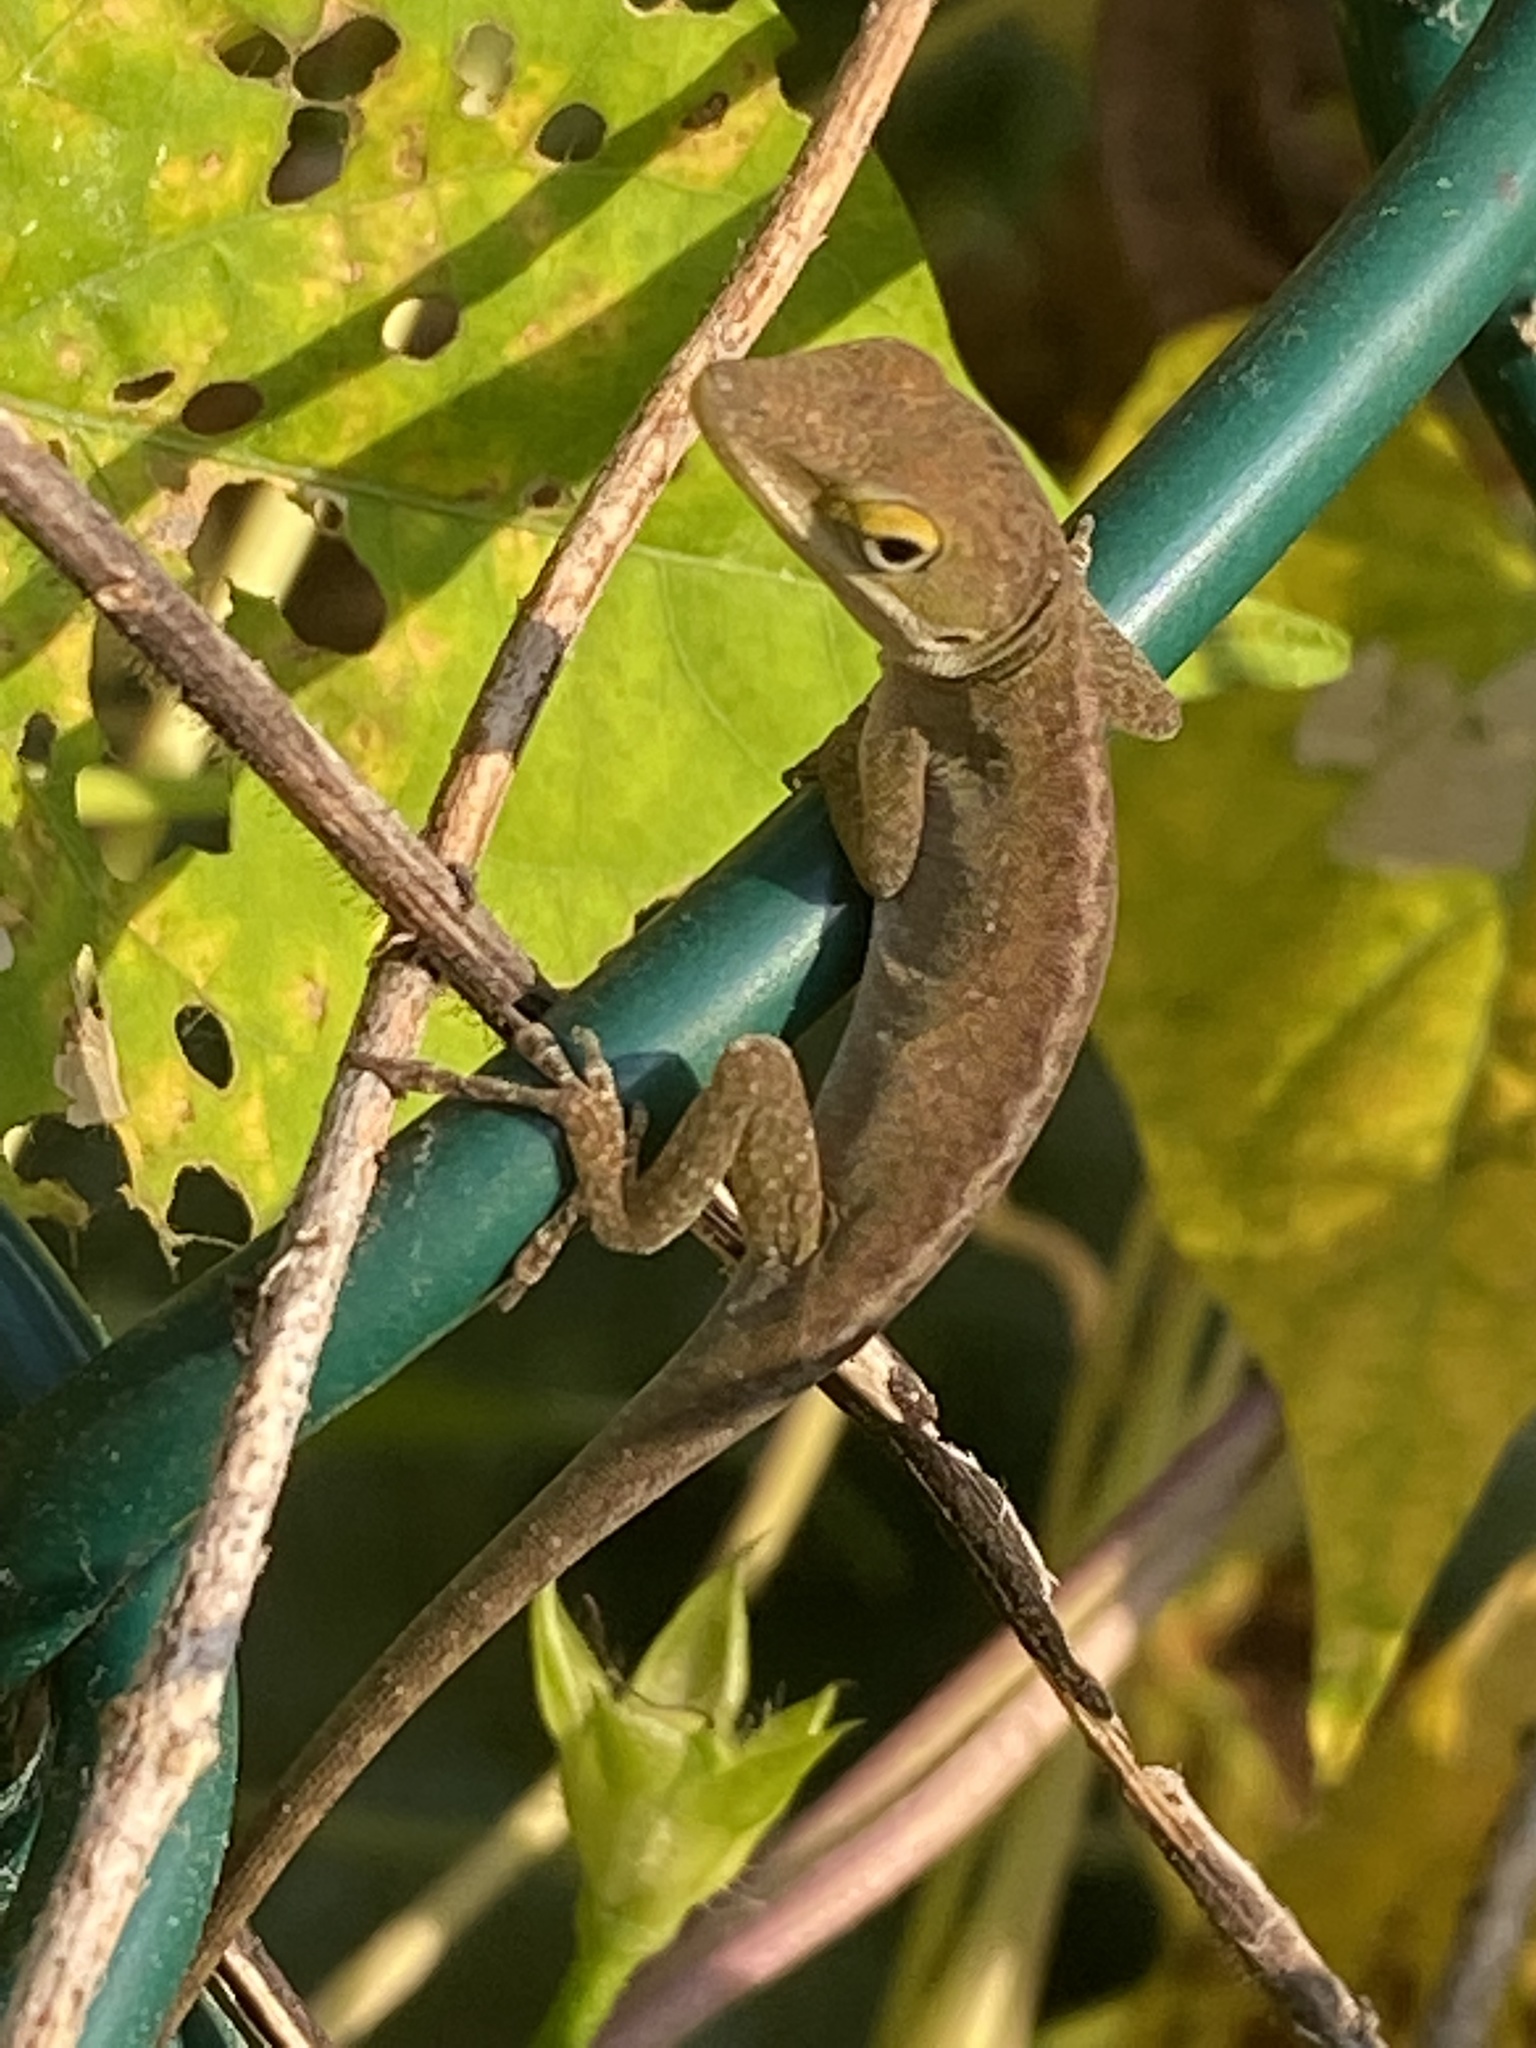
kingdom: Animalia
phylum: Chordata
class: Squamata
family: Dactyloidae
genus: Anolis
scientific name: Anolis carolinensis
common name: Green anole
